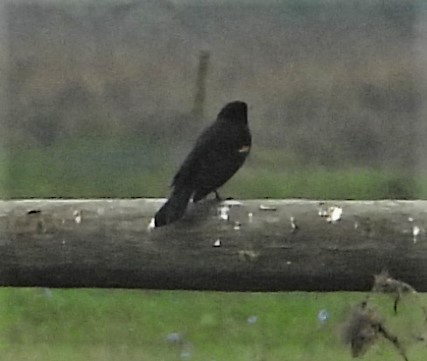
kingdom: Animalia
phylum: Chordata
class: Aves
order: Passeriformes
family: Icteridae
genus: Agelaius
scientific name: Agelaius tricolor
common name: Tricolored blackbird
